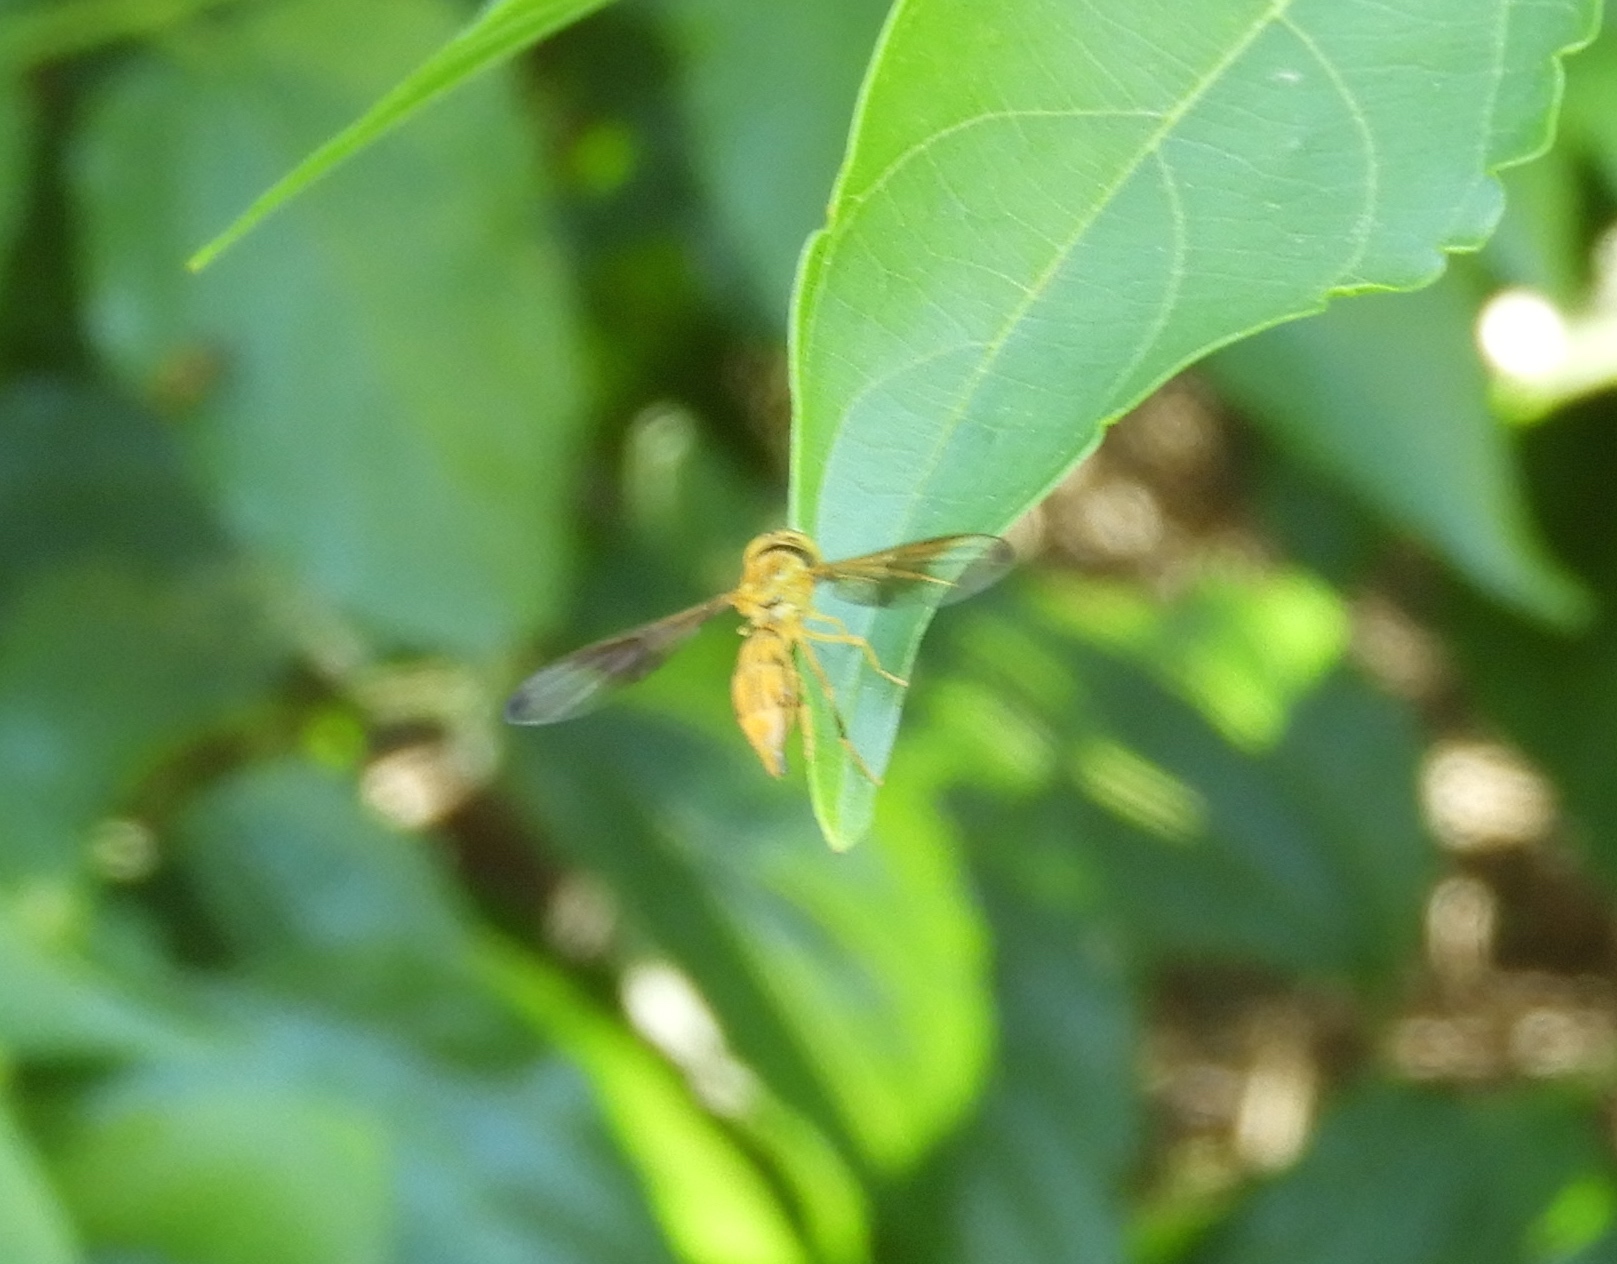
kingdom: Animalia
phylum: Arthropoda
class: Insecta
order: Diptera
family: Syrphidae
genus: Hybobathus
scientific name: Hybobathus
